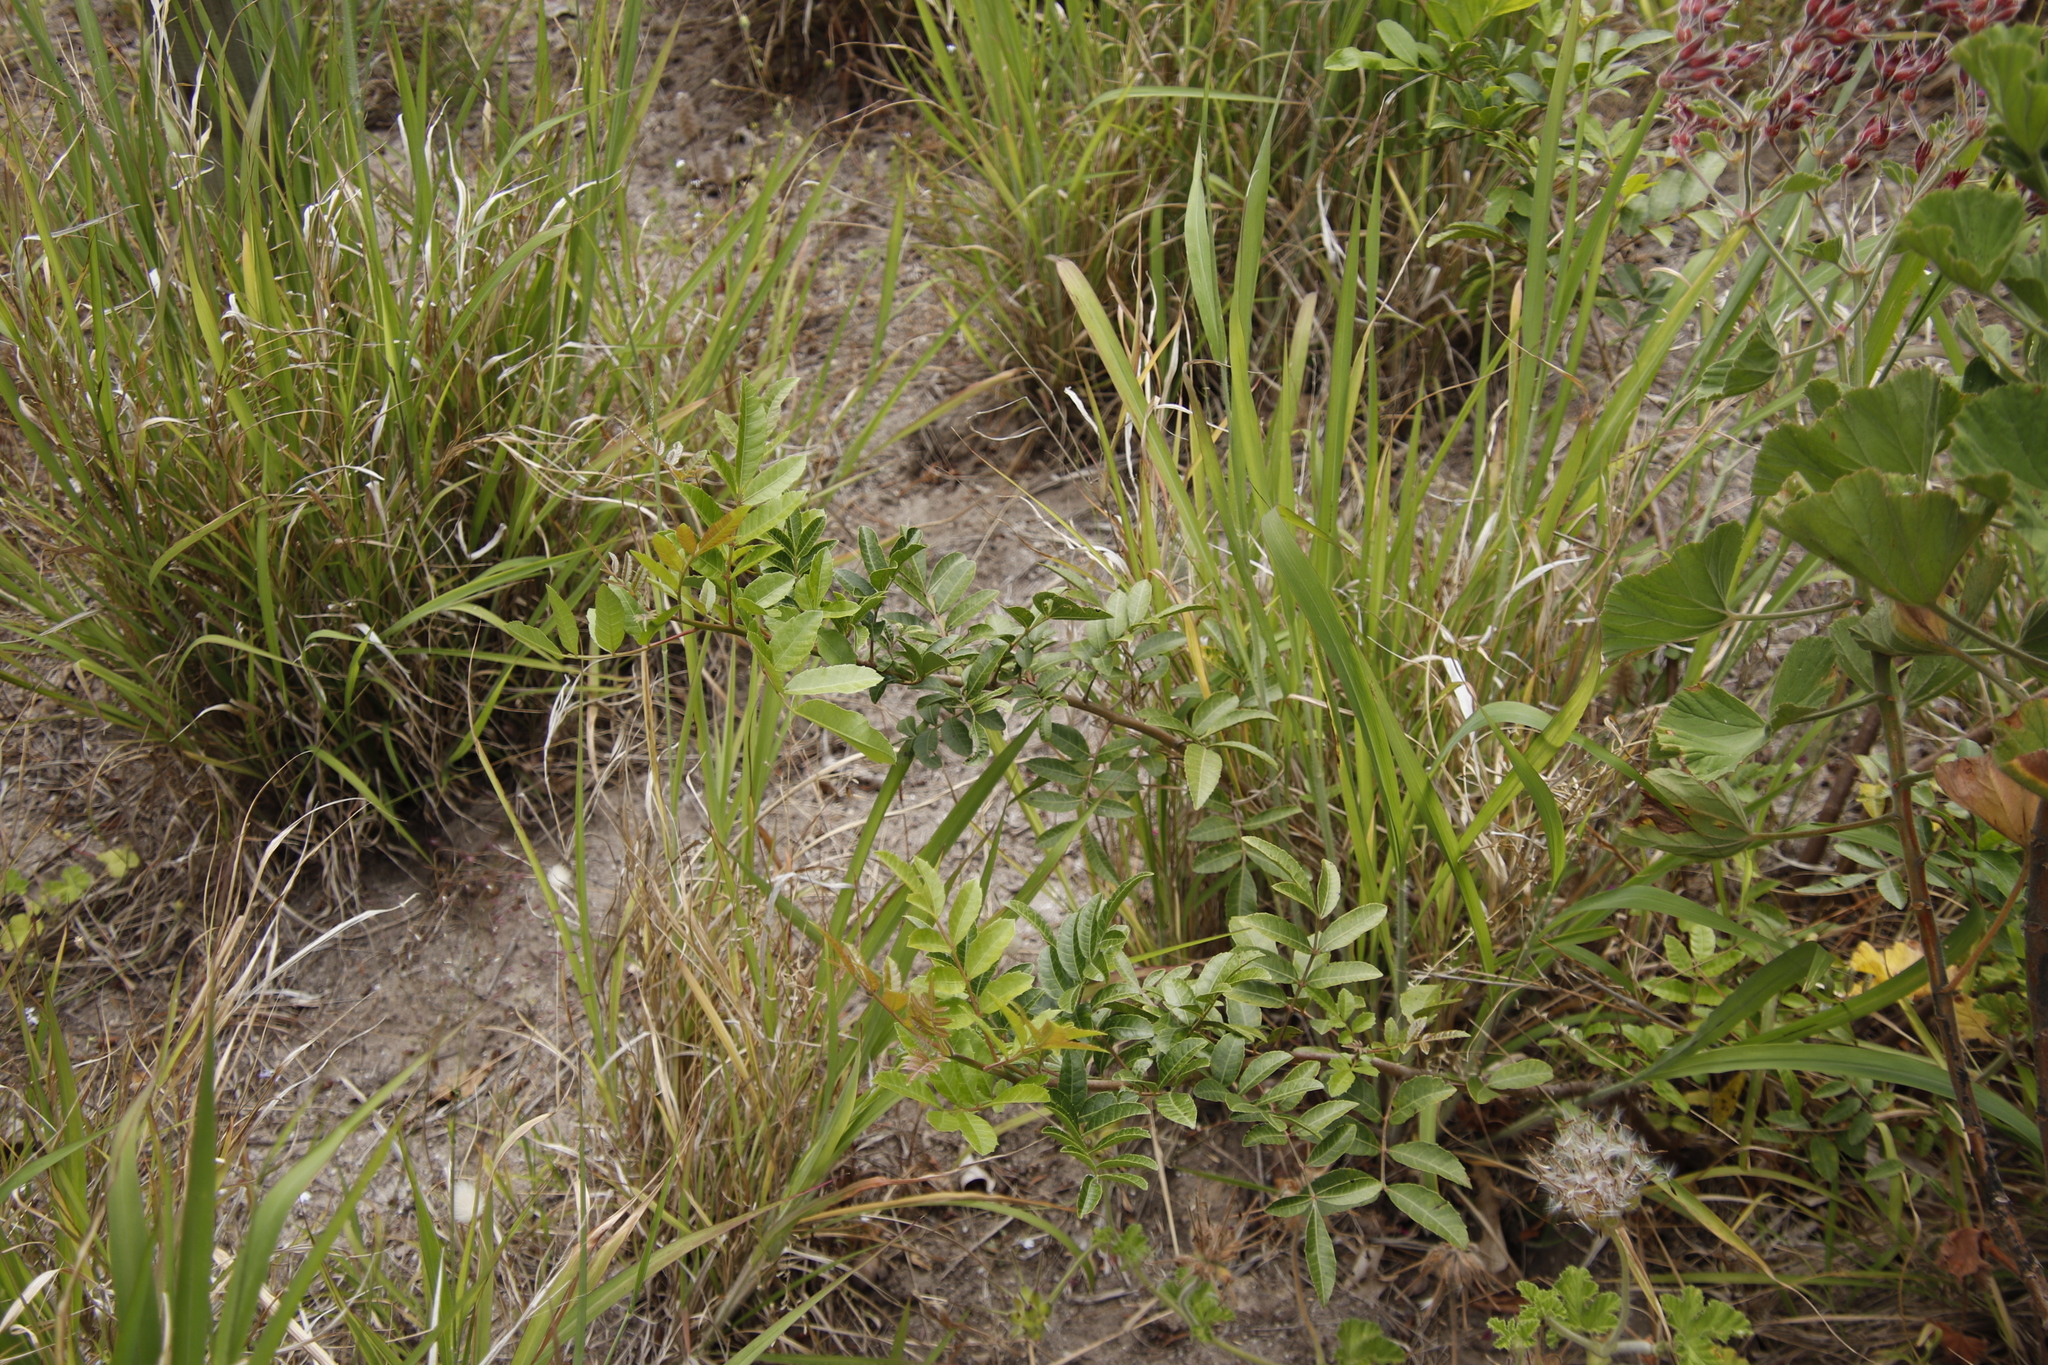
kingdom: Plantae
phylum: Tracheophyta
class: Magnoliopsida
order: Sapindales
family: Anacardiaceae
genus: Schinus
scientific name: Schinus terebinthifolia
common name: Brazilian peppertree
